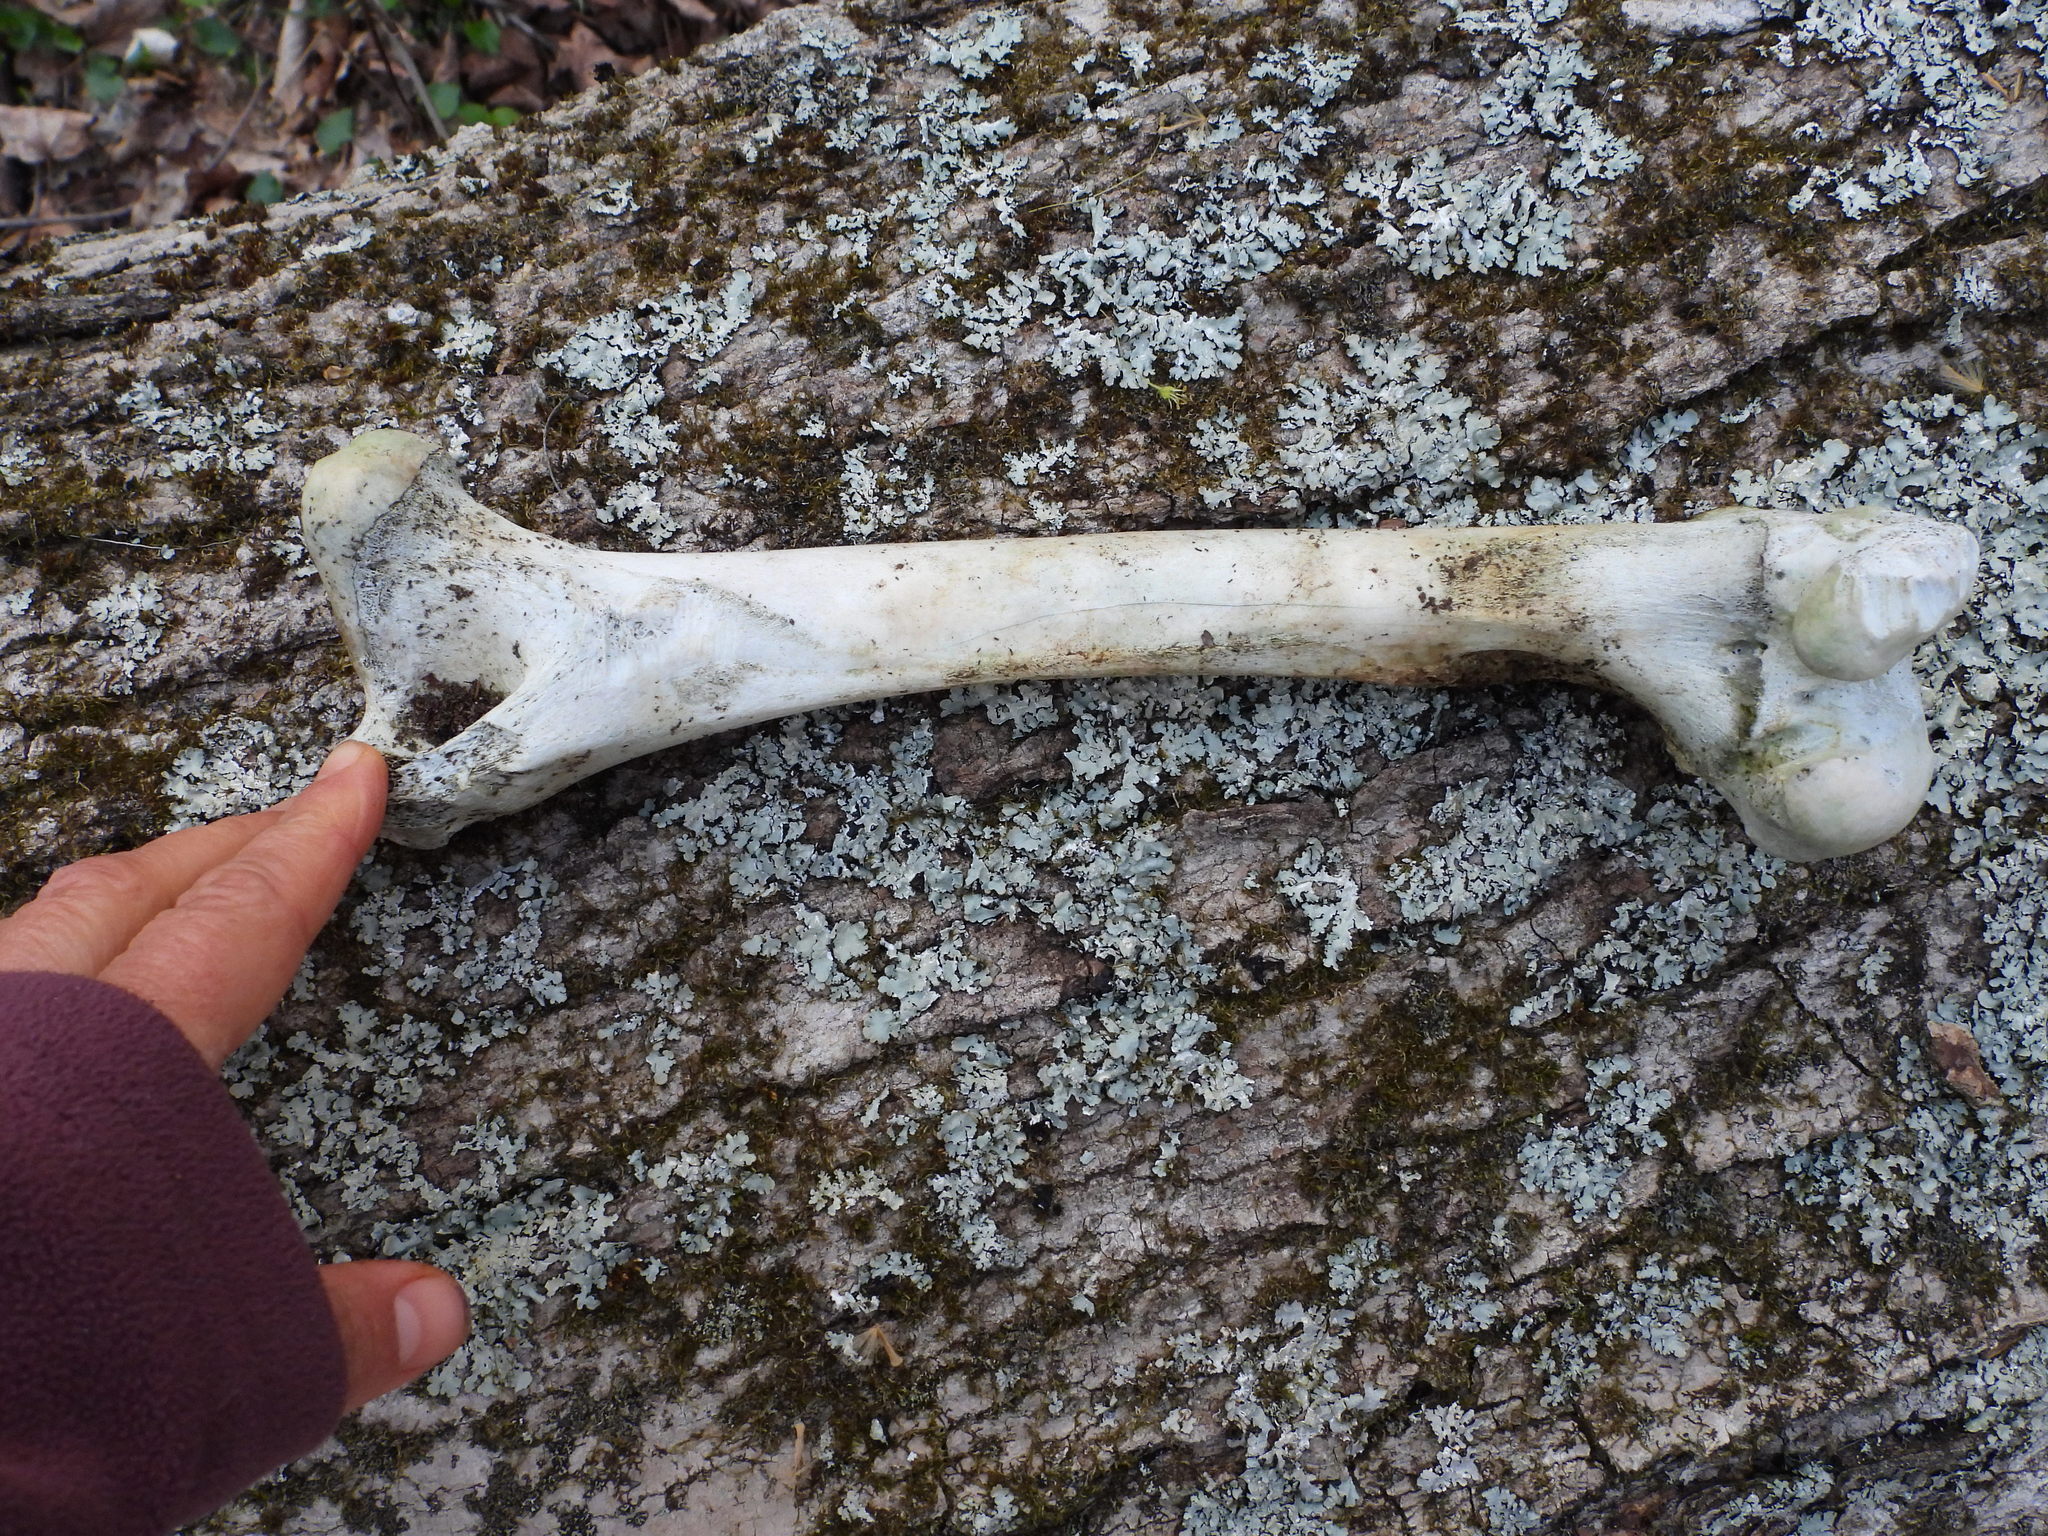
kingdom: Animalia
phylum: Chordata
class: Mammalia
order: Artiodactyla
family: Cervidae
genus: Odocoileus
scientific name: Odocoileus virginianus
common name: White-tailed deer
